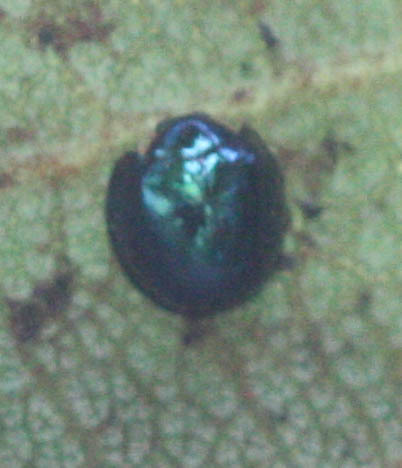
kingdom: Animalia
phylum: Arthropoda
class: Insecta
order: Coleoptera
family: Coccinellidae
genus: Halmus
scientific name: Halmus chalybeus
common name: Steel blue ladybird beetle
